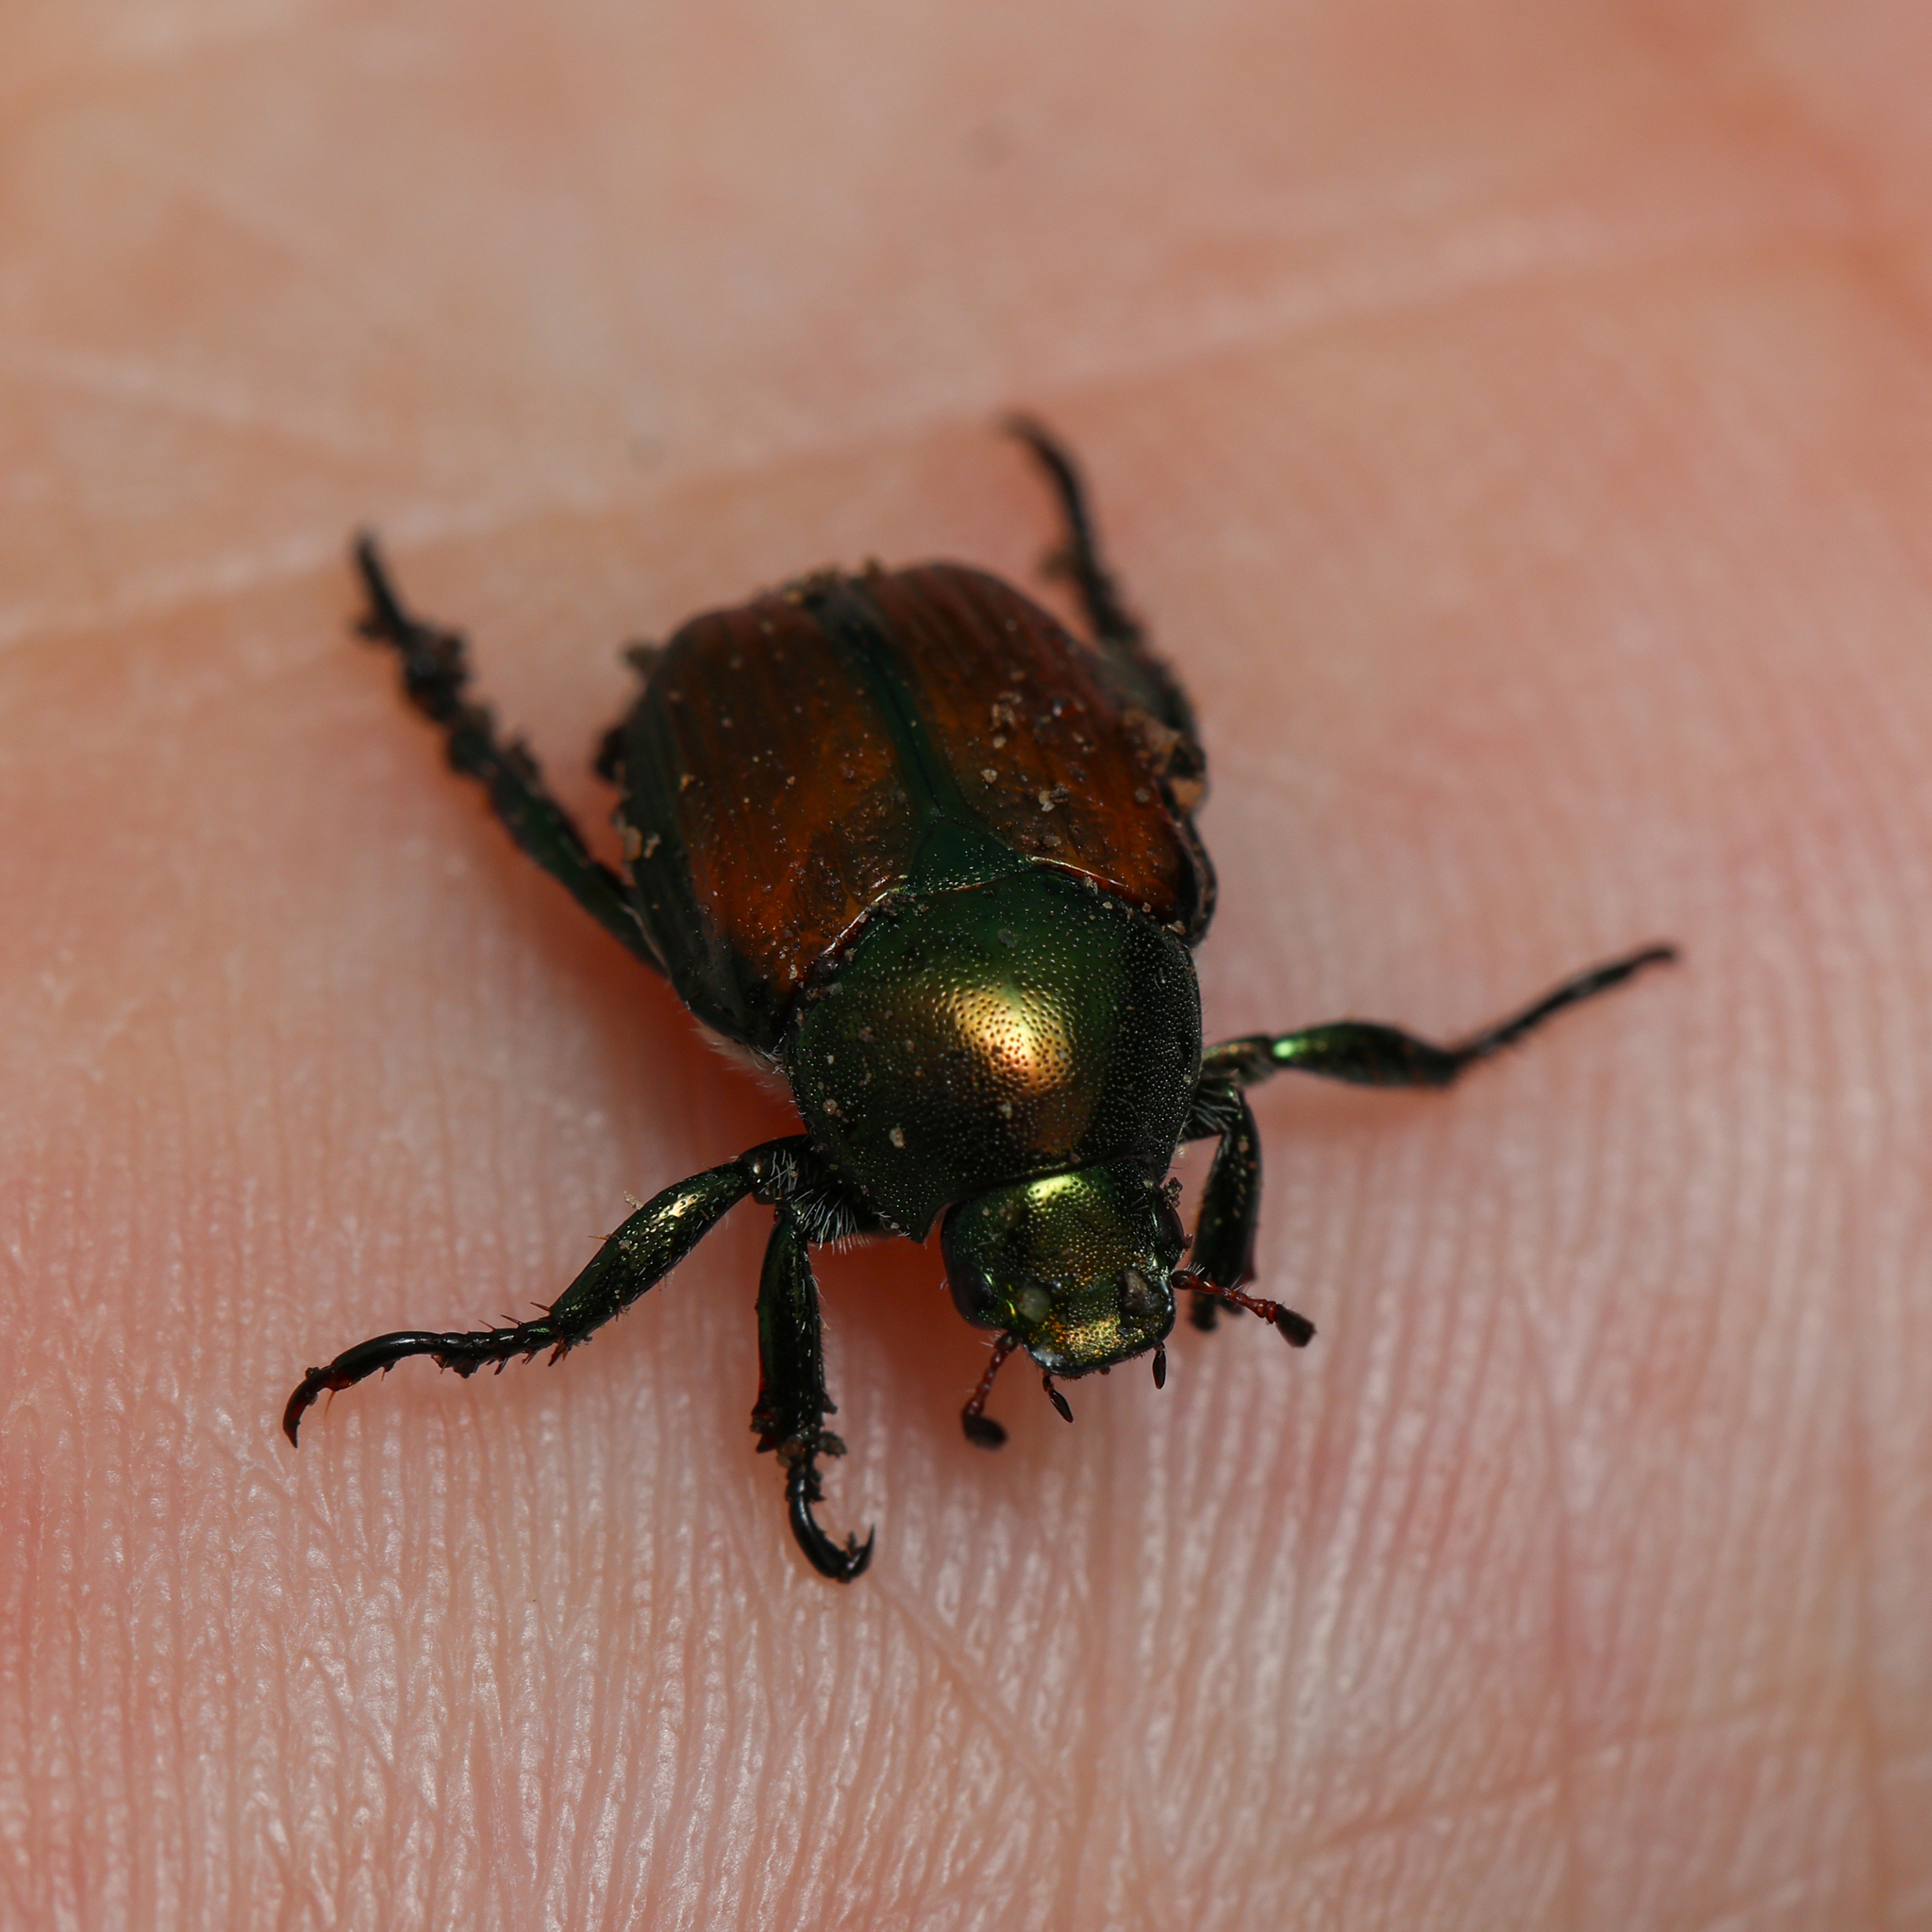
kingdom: Animalia
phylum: Arthropoda
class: Insecta
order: Coleoptera
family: Scarabaeidae
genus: Popillia
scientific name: Popillia japonica
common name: Japanese beetle
